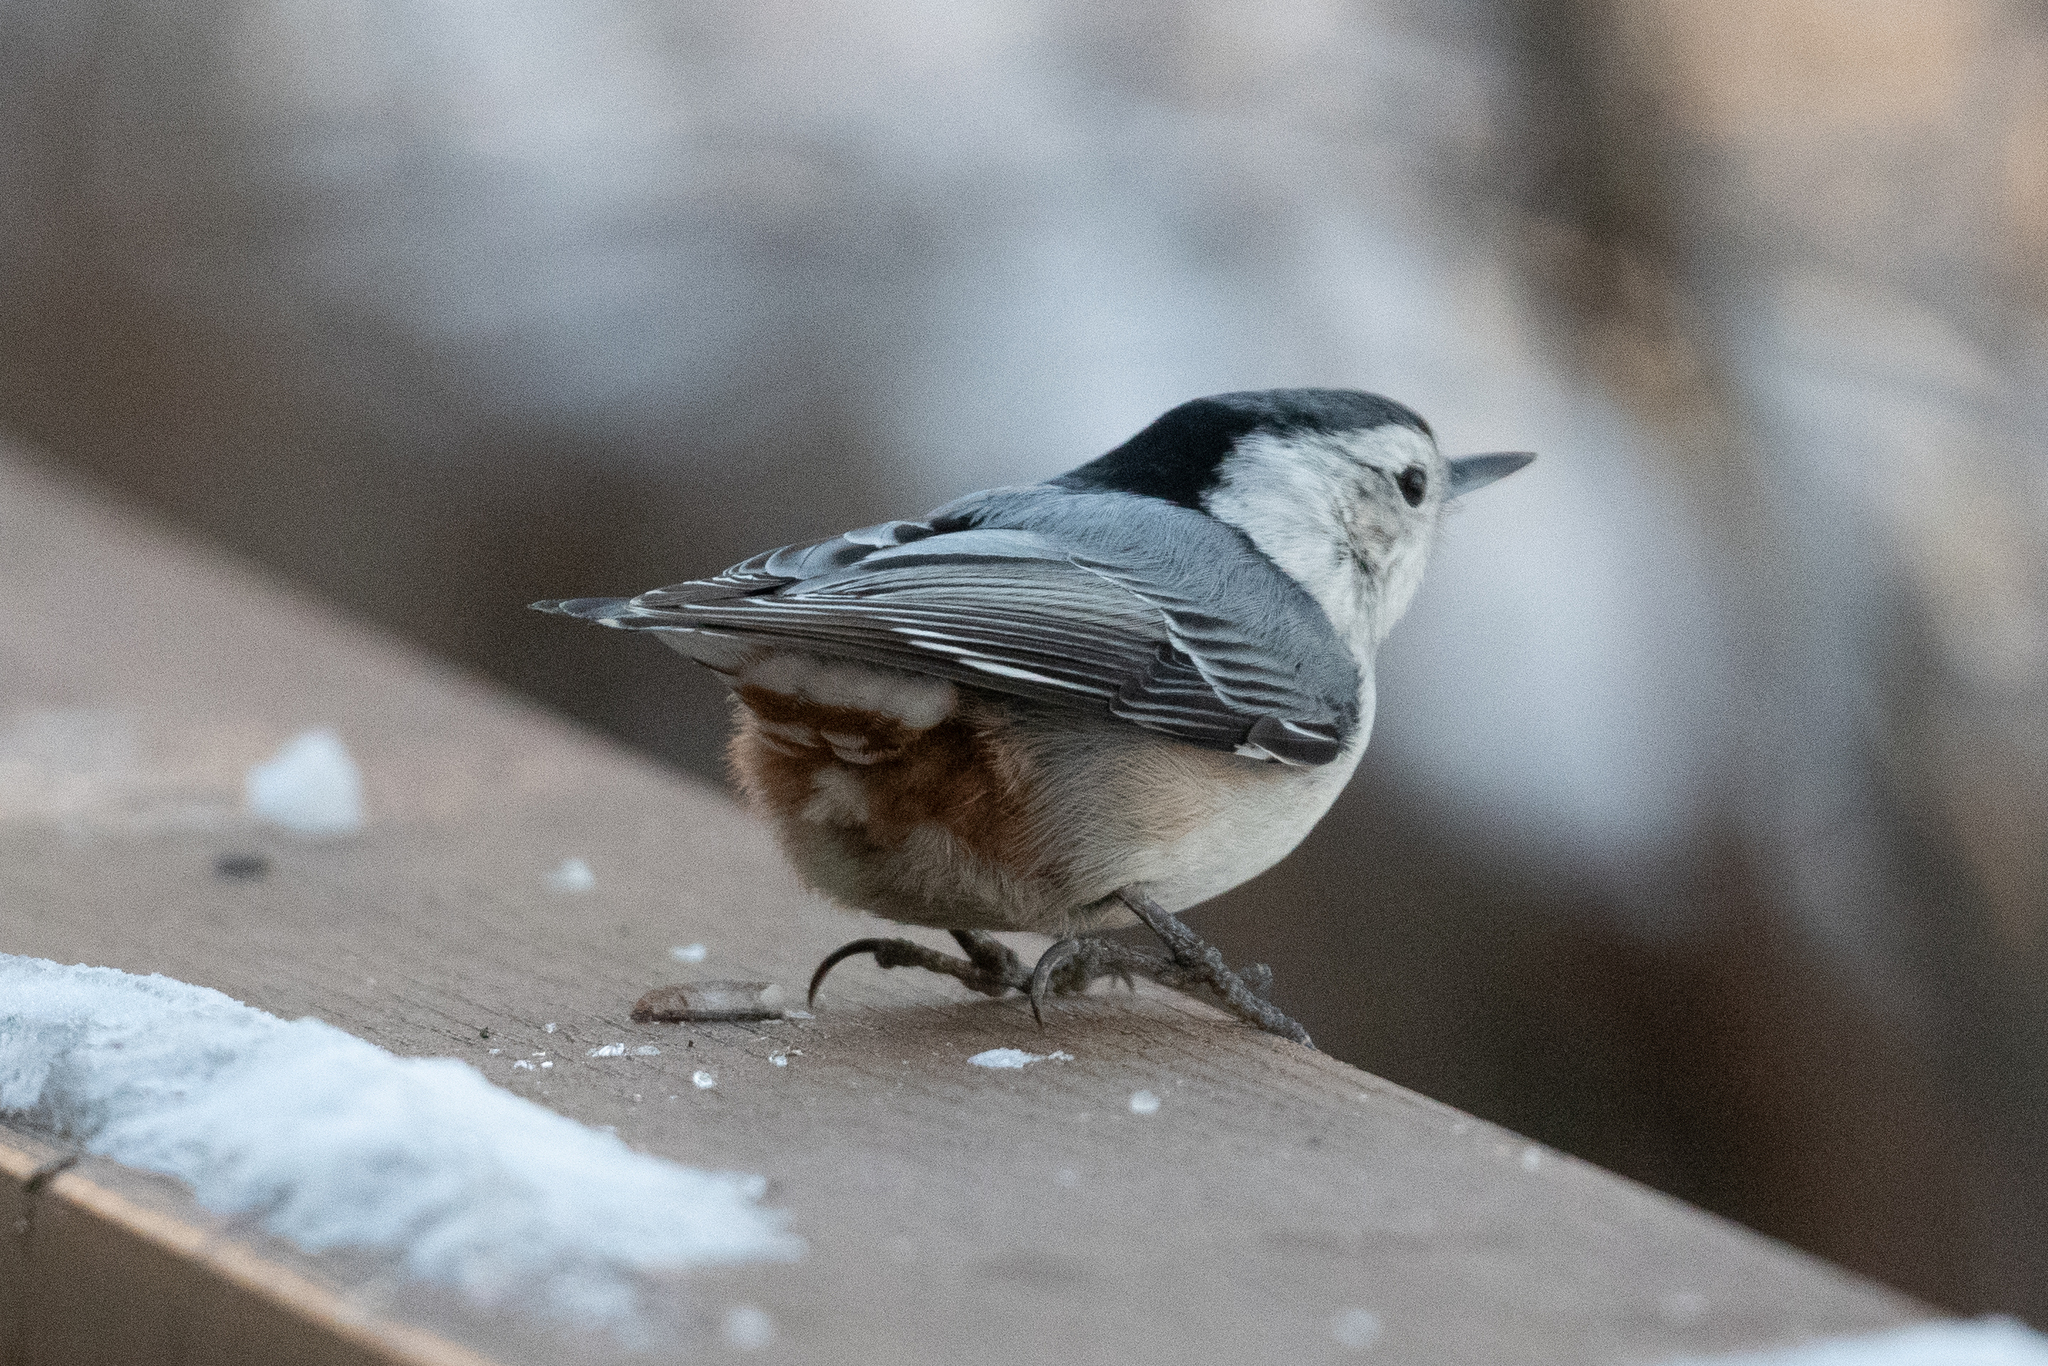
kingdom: Animalia
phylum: Chordata
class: Aves
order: Passeriformes
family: Sittidae
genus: Sitta
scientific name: Sitta carolinensis
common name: White-breasted nuthatch
